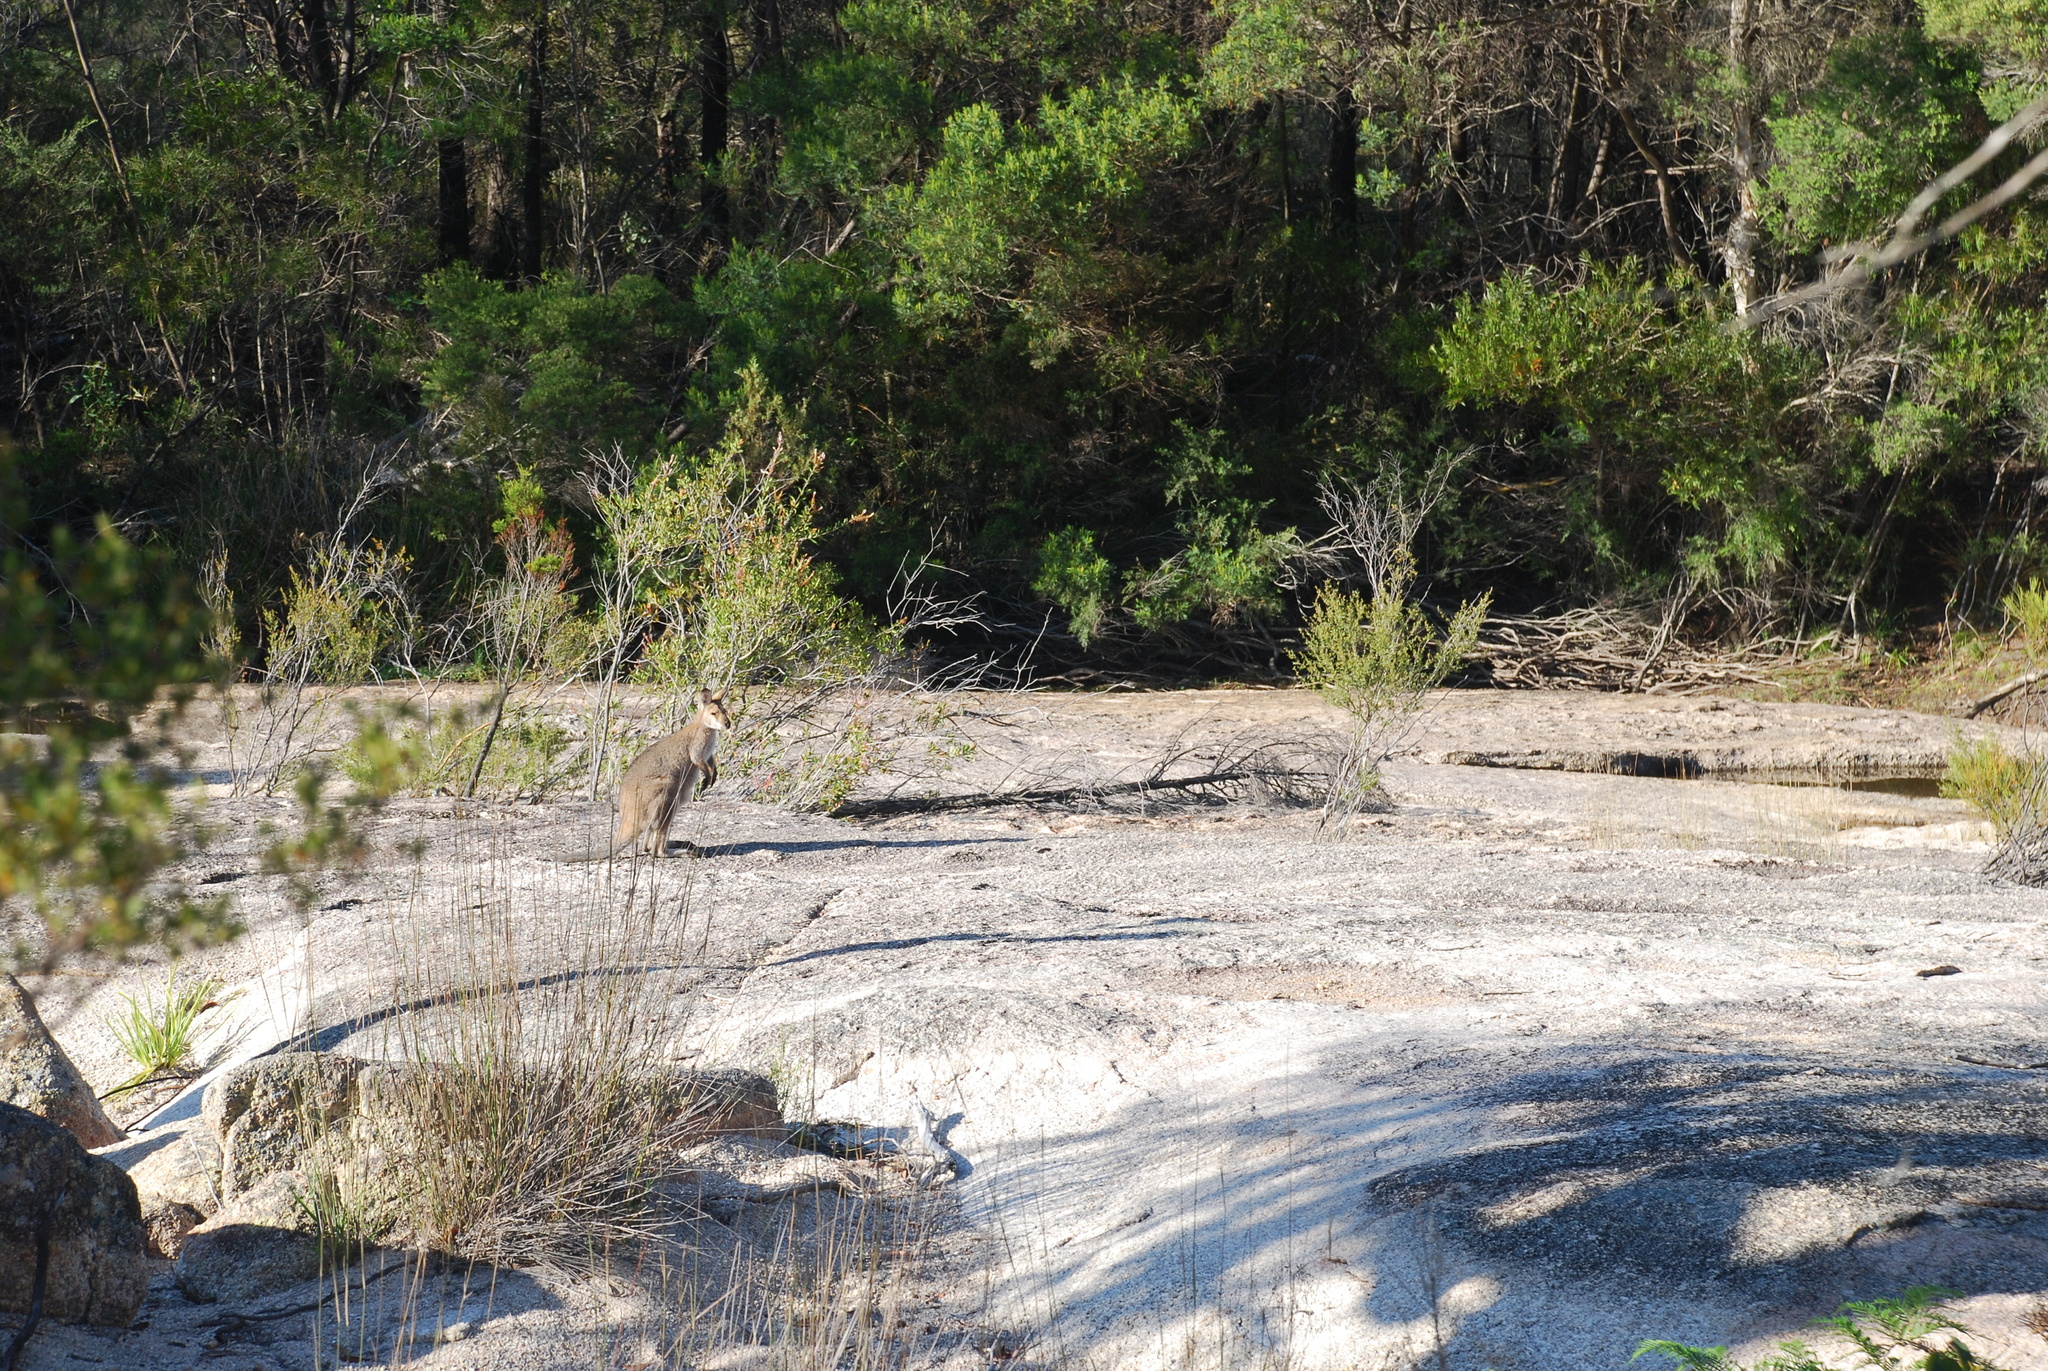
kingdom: Animalia
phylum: Chordata
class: Mammalia
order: Diprotodontia
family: Macropodidae
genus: Notamacropus
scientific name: Notamacropus rufogriseus
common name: Red-necked wallaby
